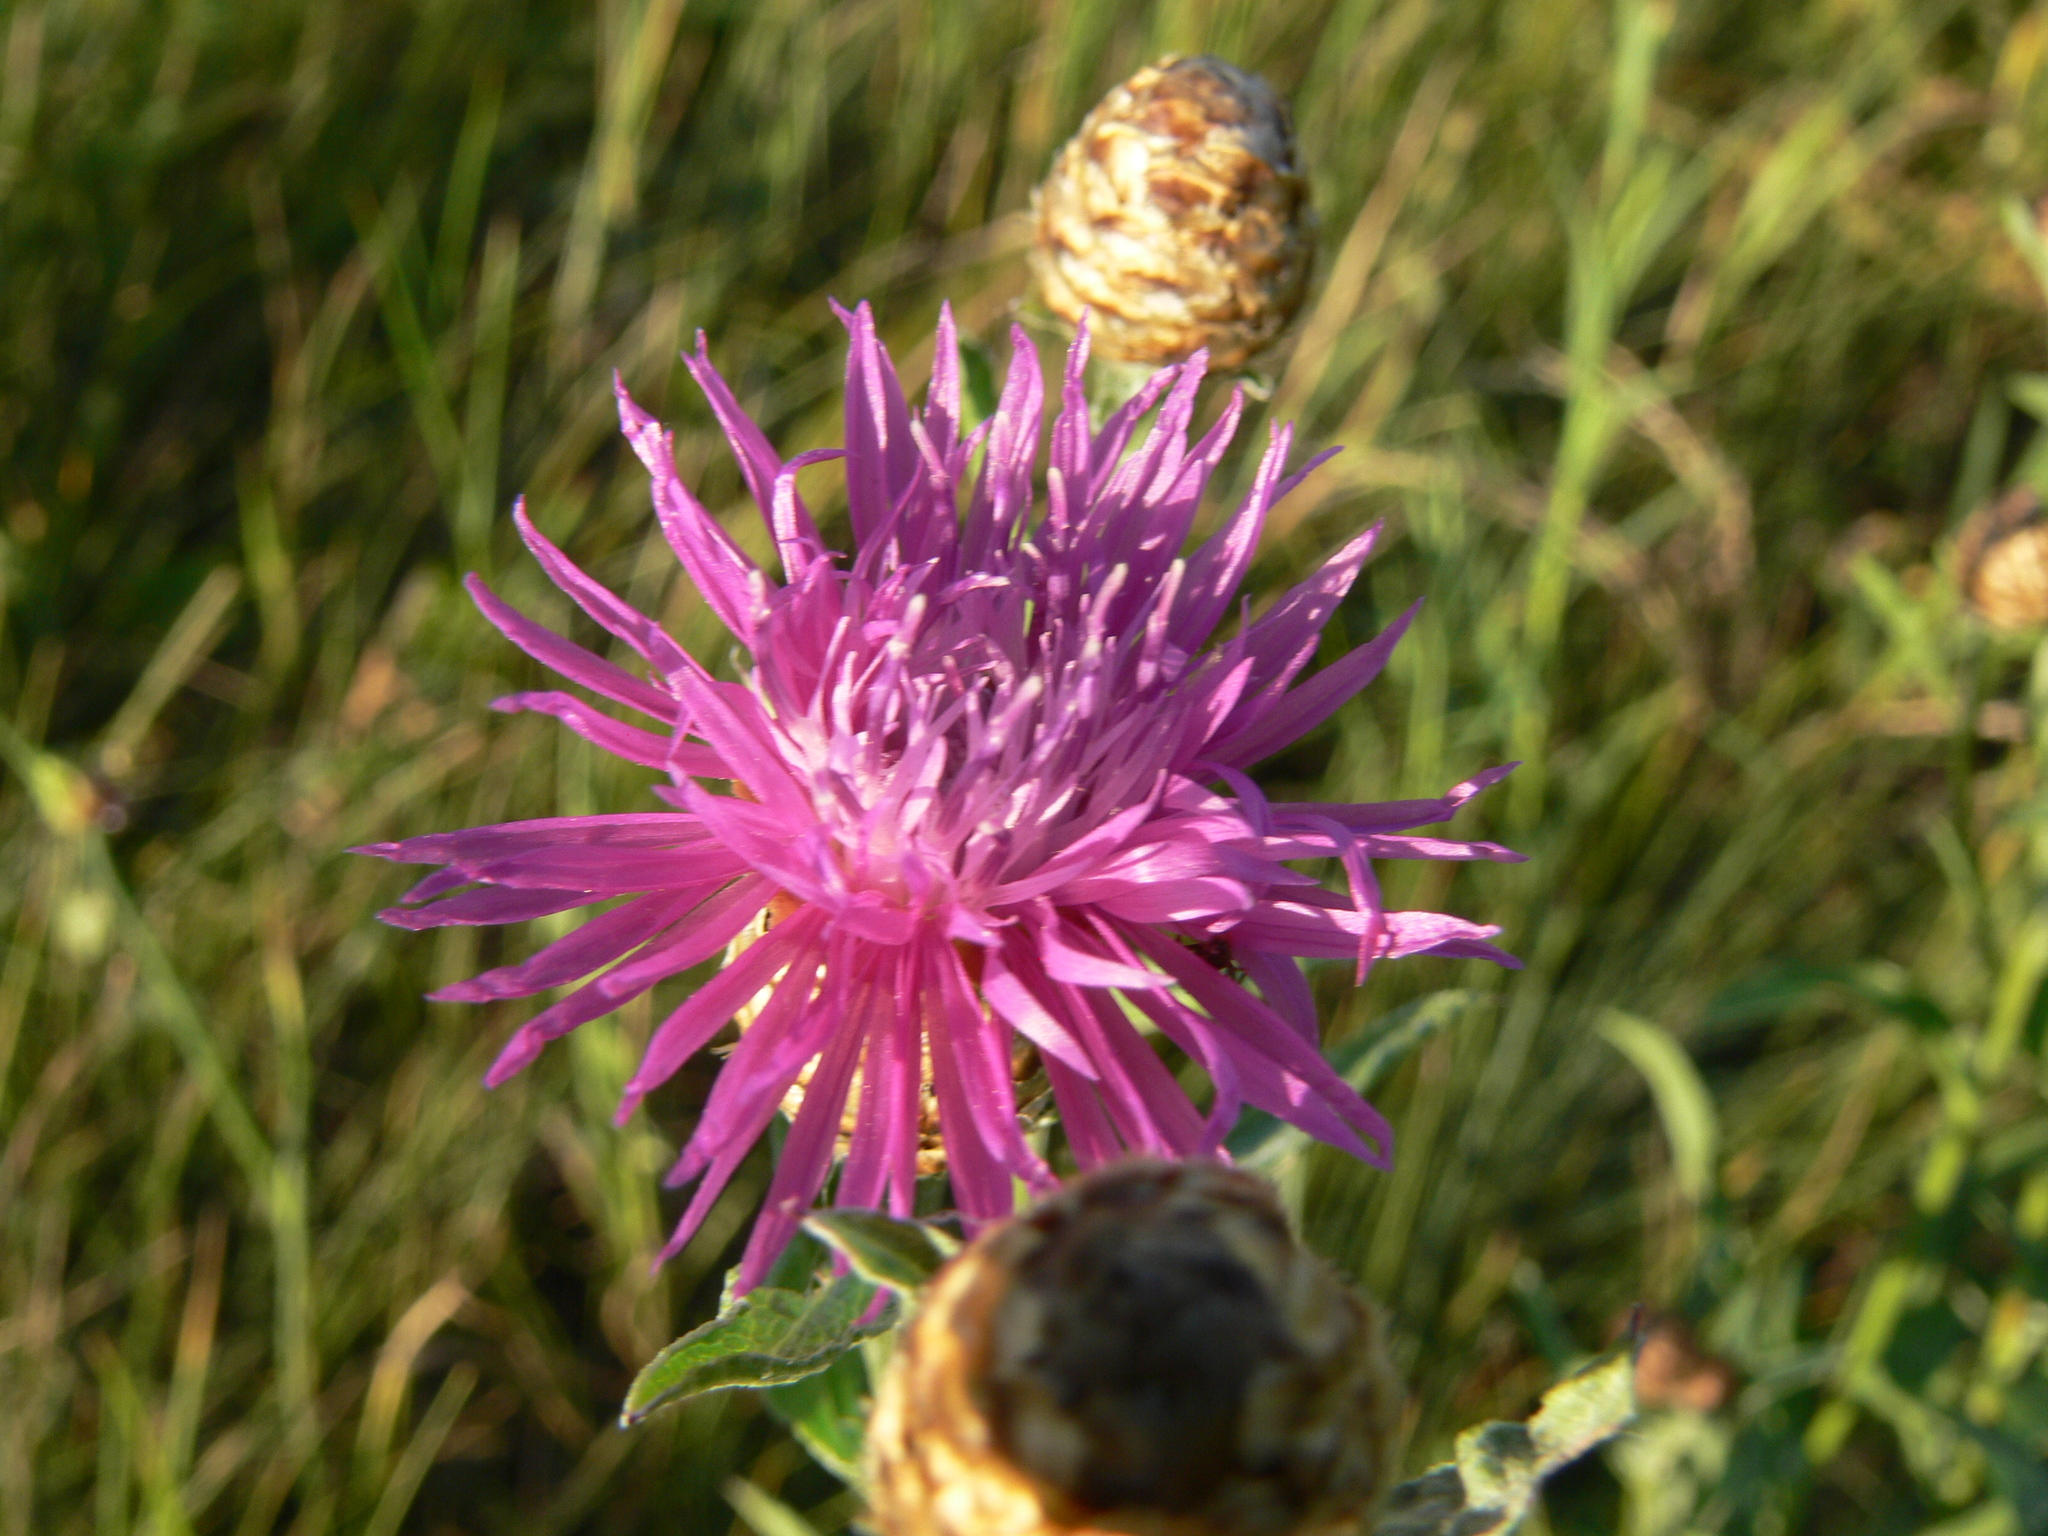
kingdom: Plantae
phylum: Tracheophyta
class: Magnoliopsida
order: Asterales
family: Asteraceae
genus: Centaurea
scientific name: Centaurea jacea
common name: Brown knapweed
